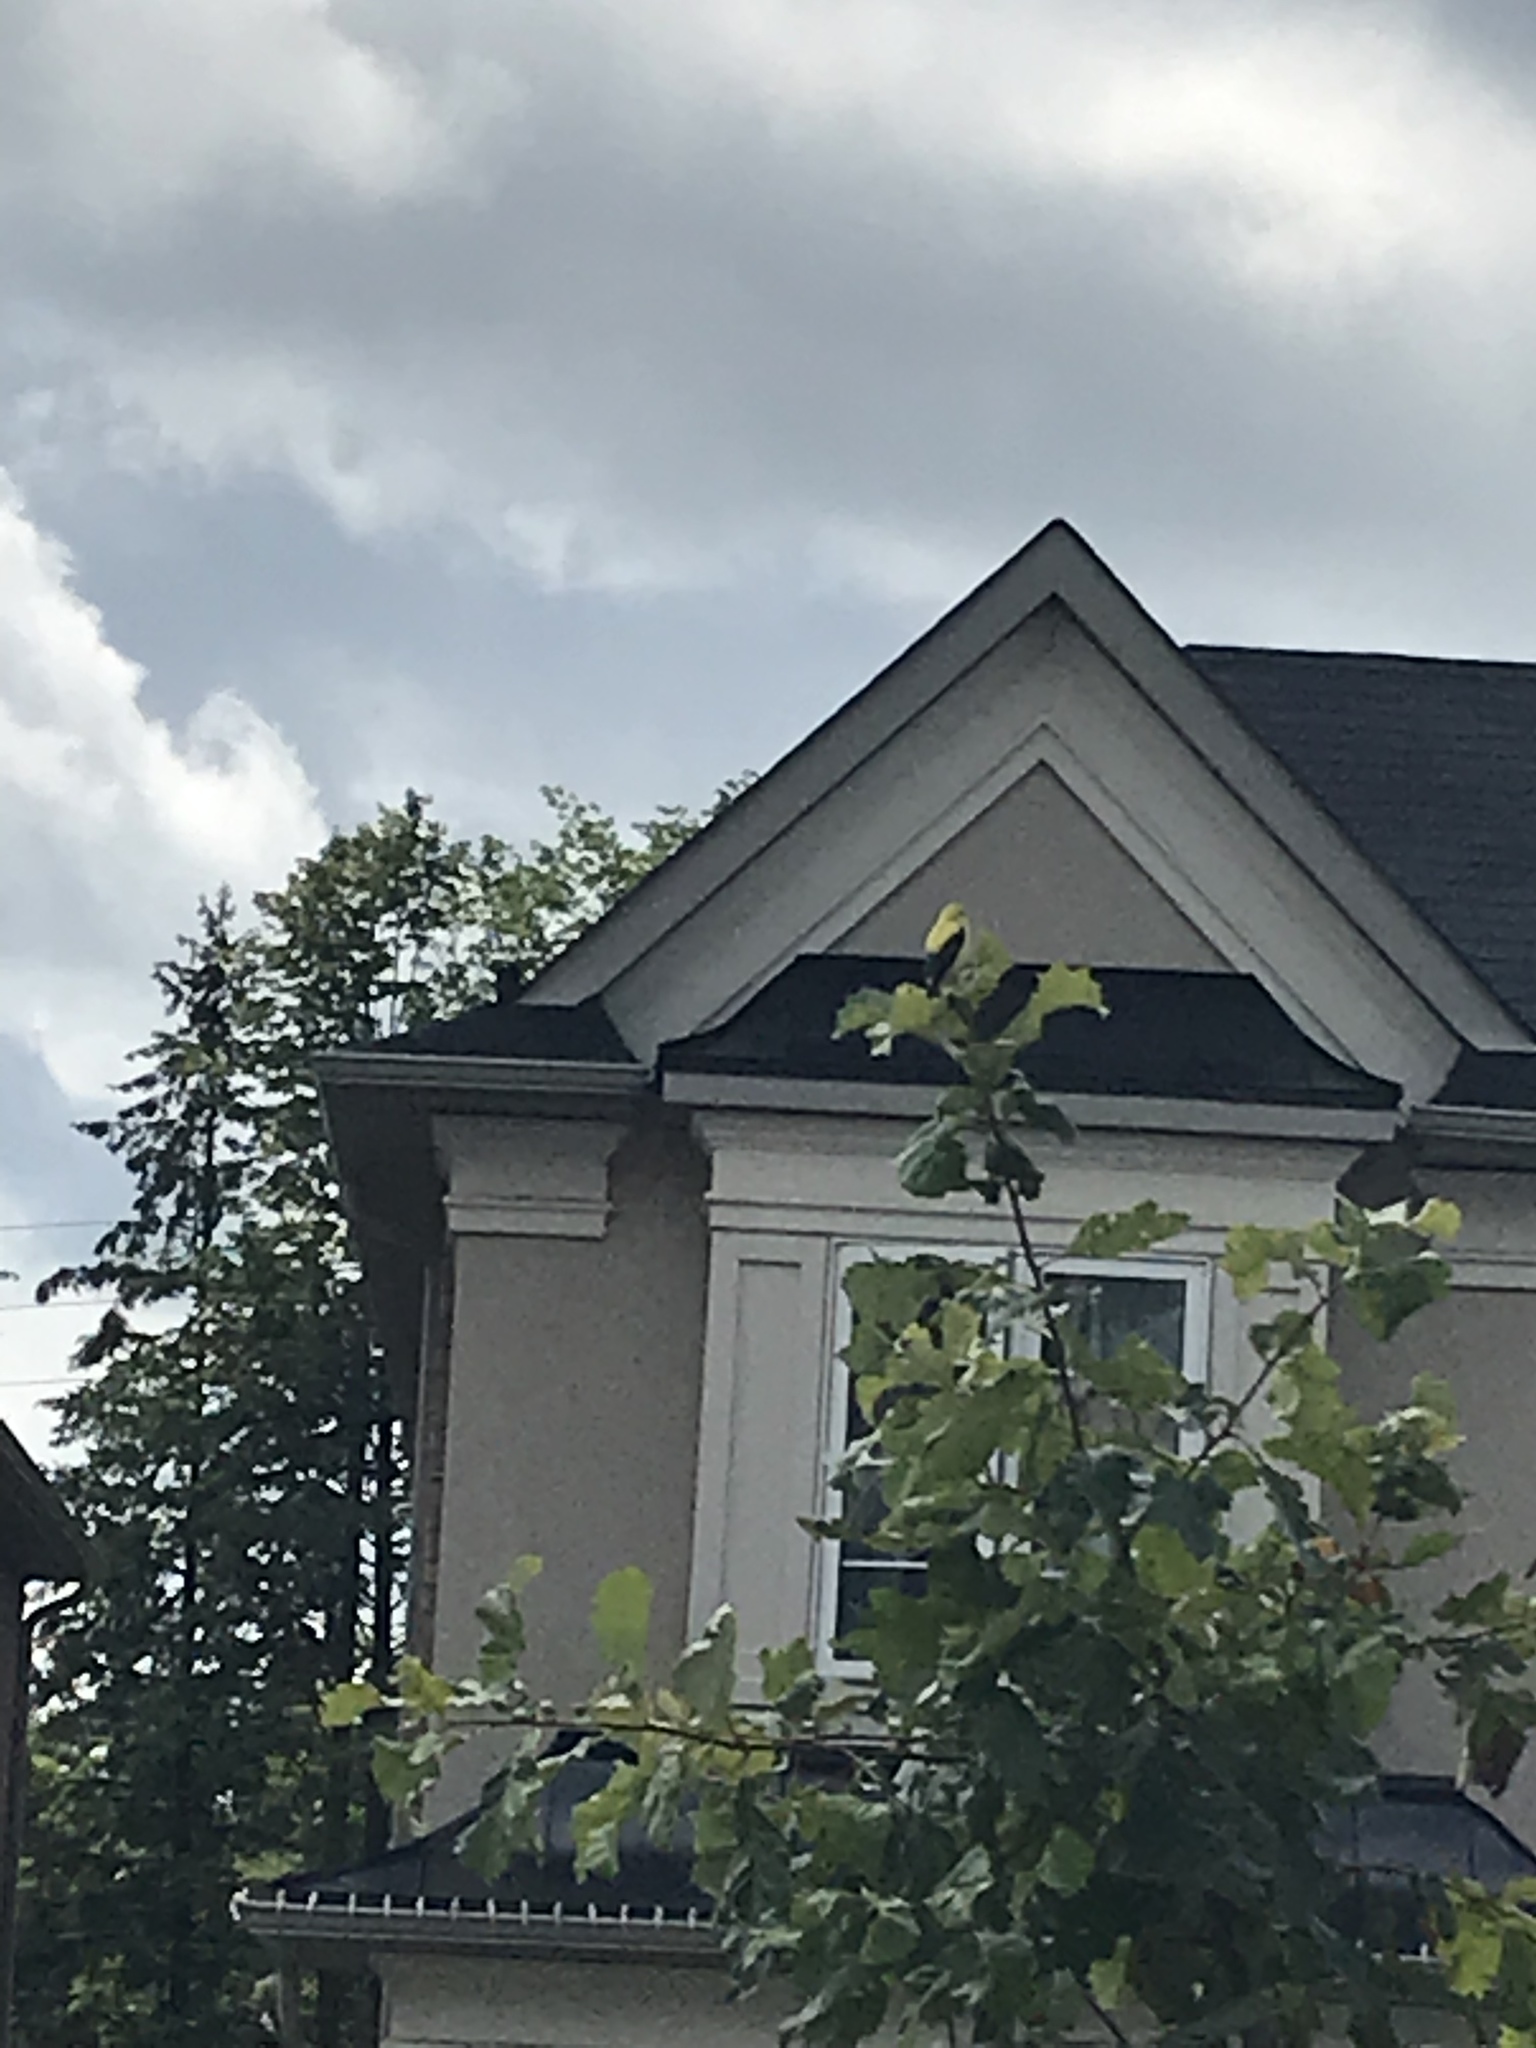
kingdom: Animalia
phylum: Chordata
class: Aves
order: Passeriformes
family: Fringillidae
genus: Spinus
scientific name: Spinus tristis
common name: American goldfinch
